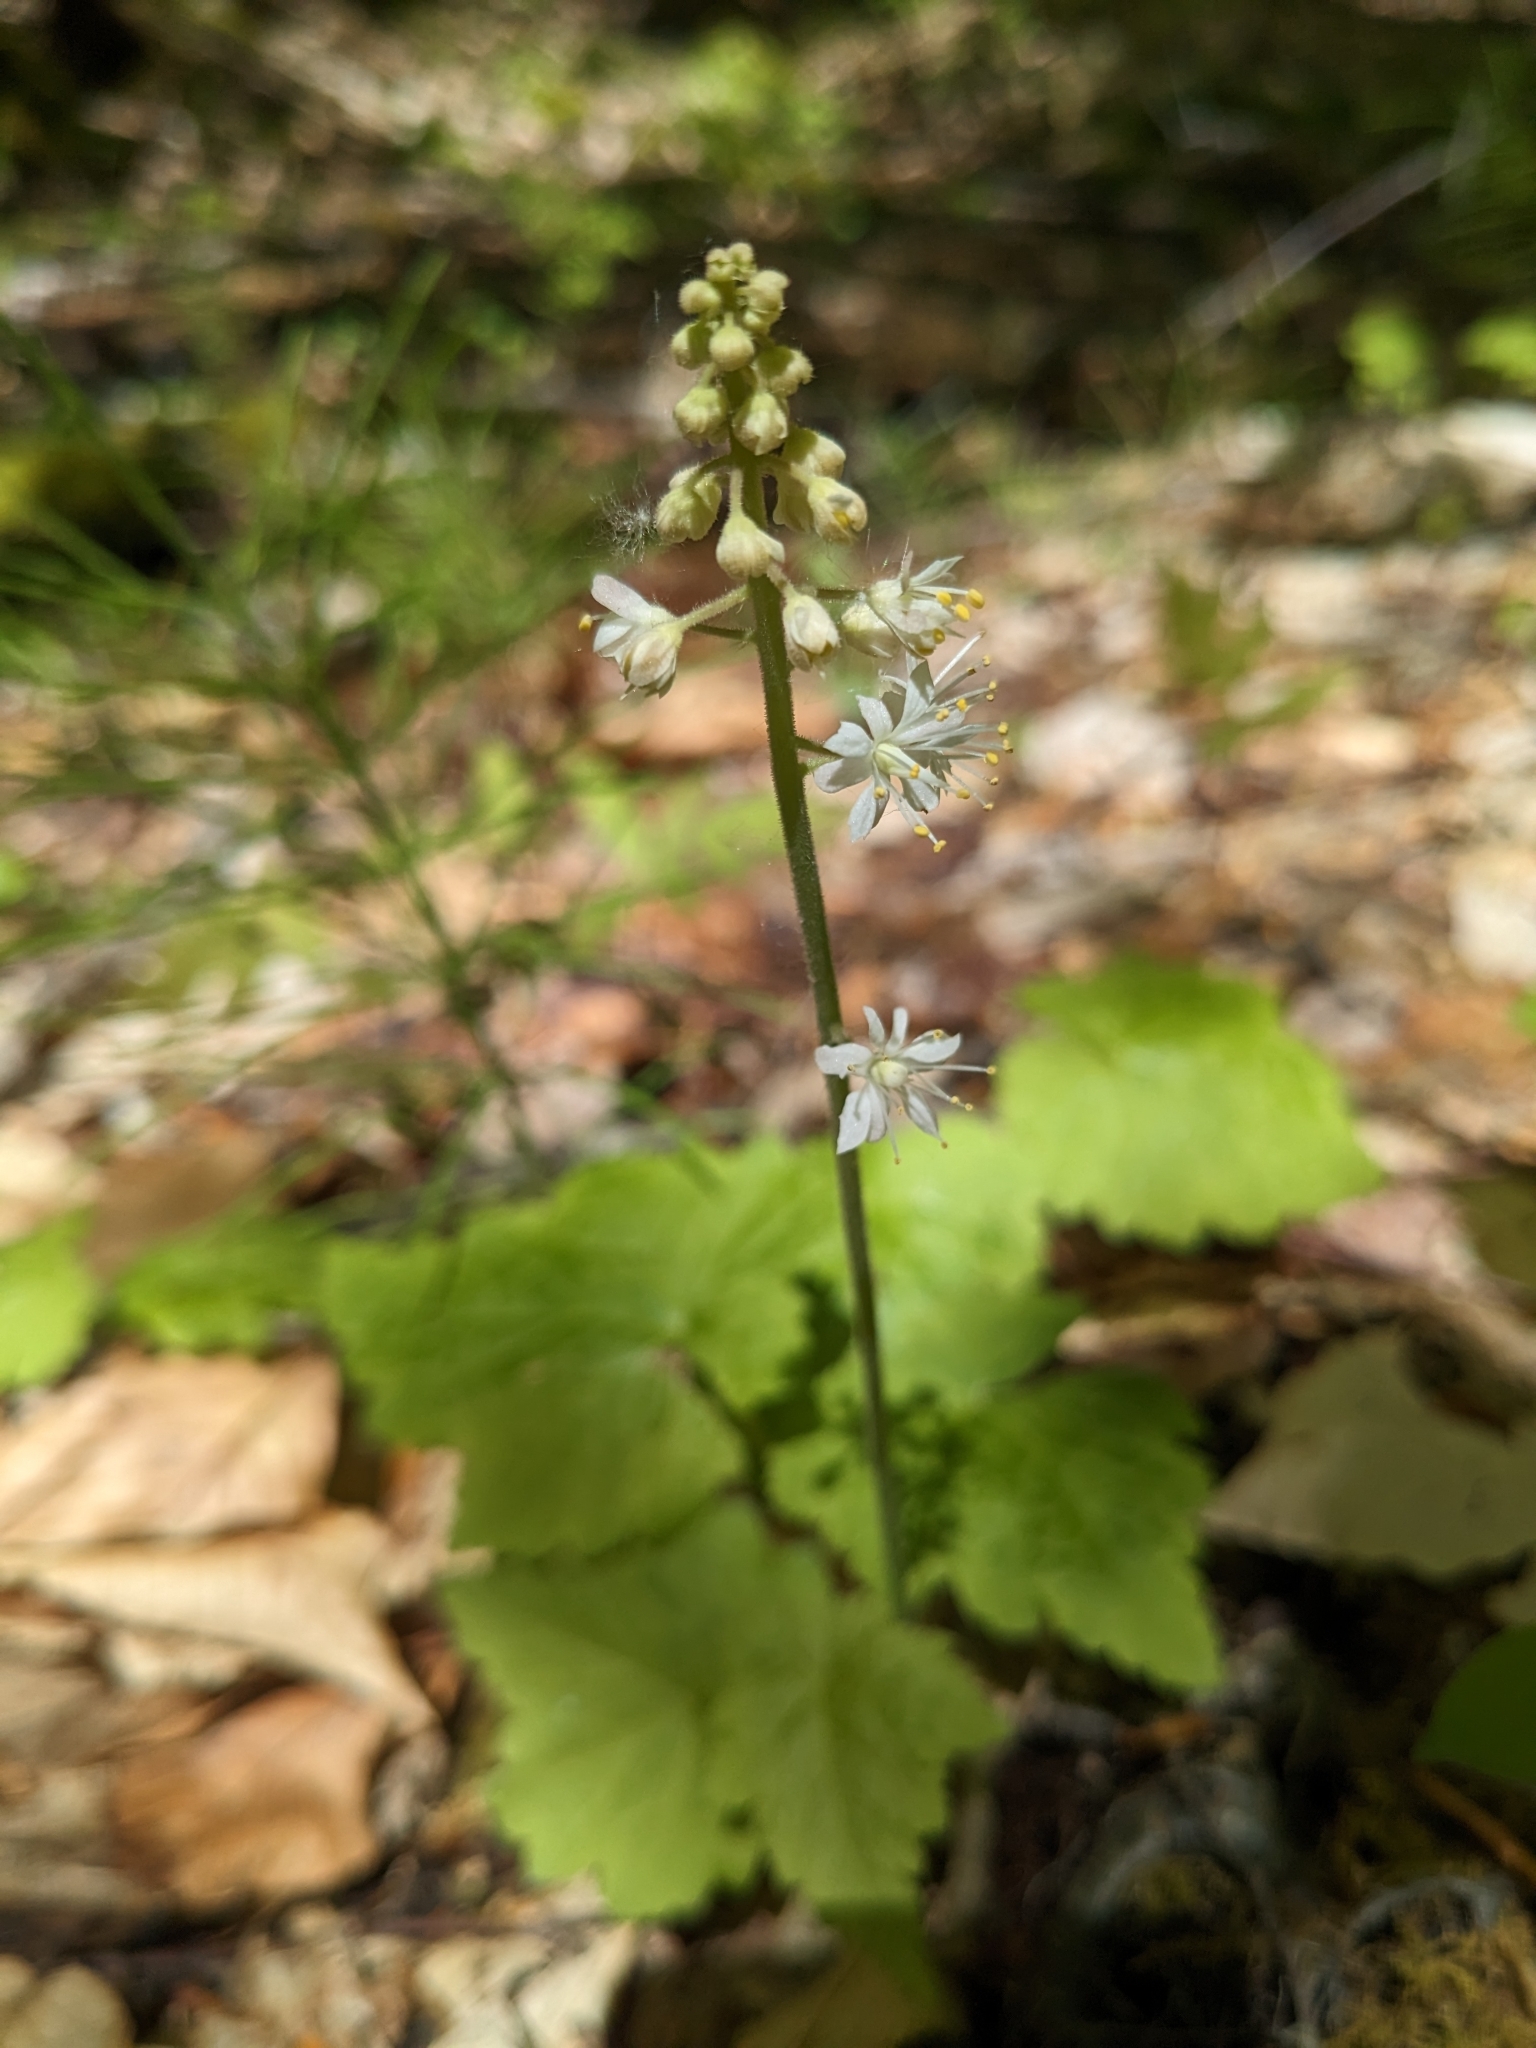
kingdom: Plantae
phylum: Tracheophyta
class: Magnoliopsida
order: Saxifragales
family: Saxifragaceae
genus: Tiarella
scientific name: Tiarella stolonifera
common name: Stoloniferous foamflower
